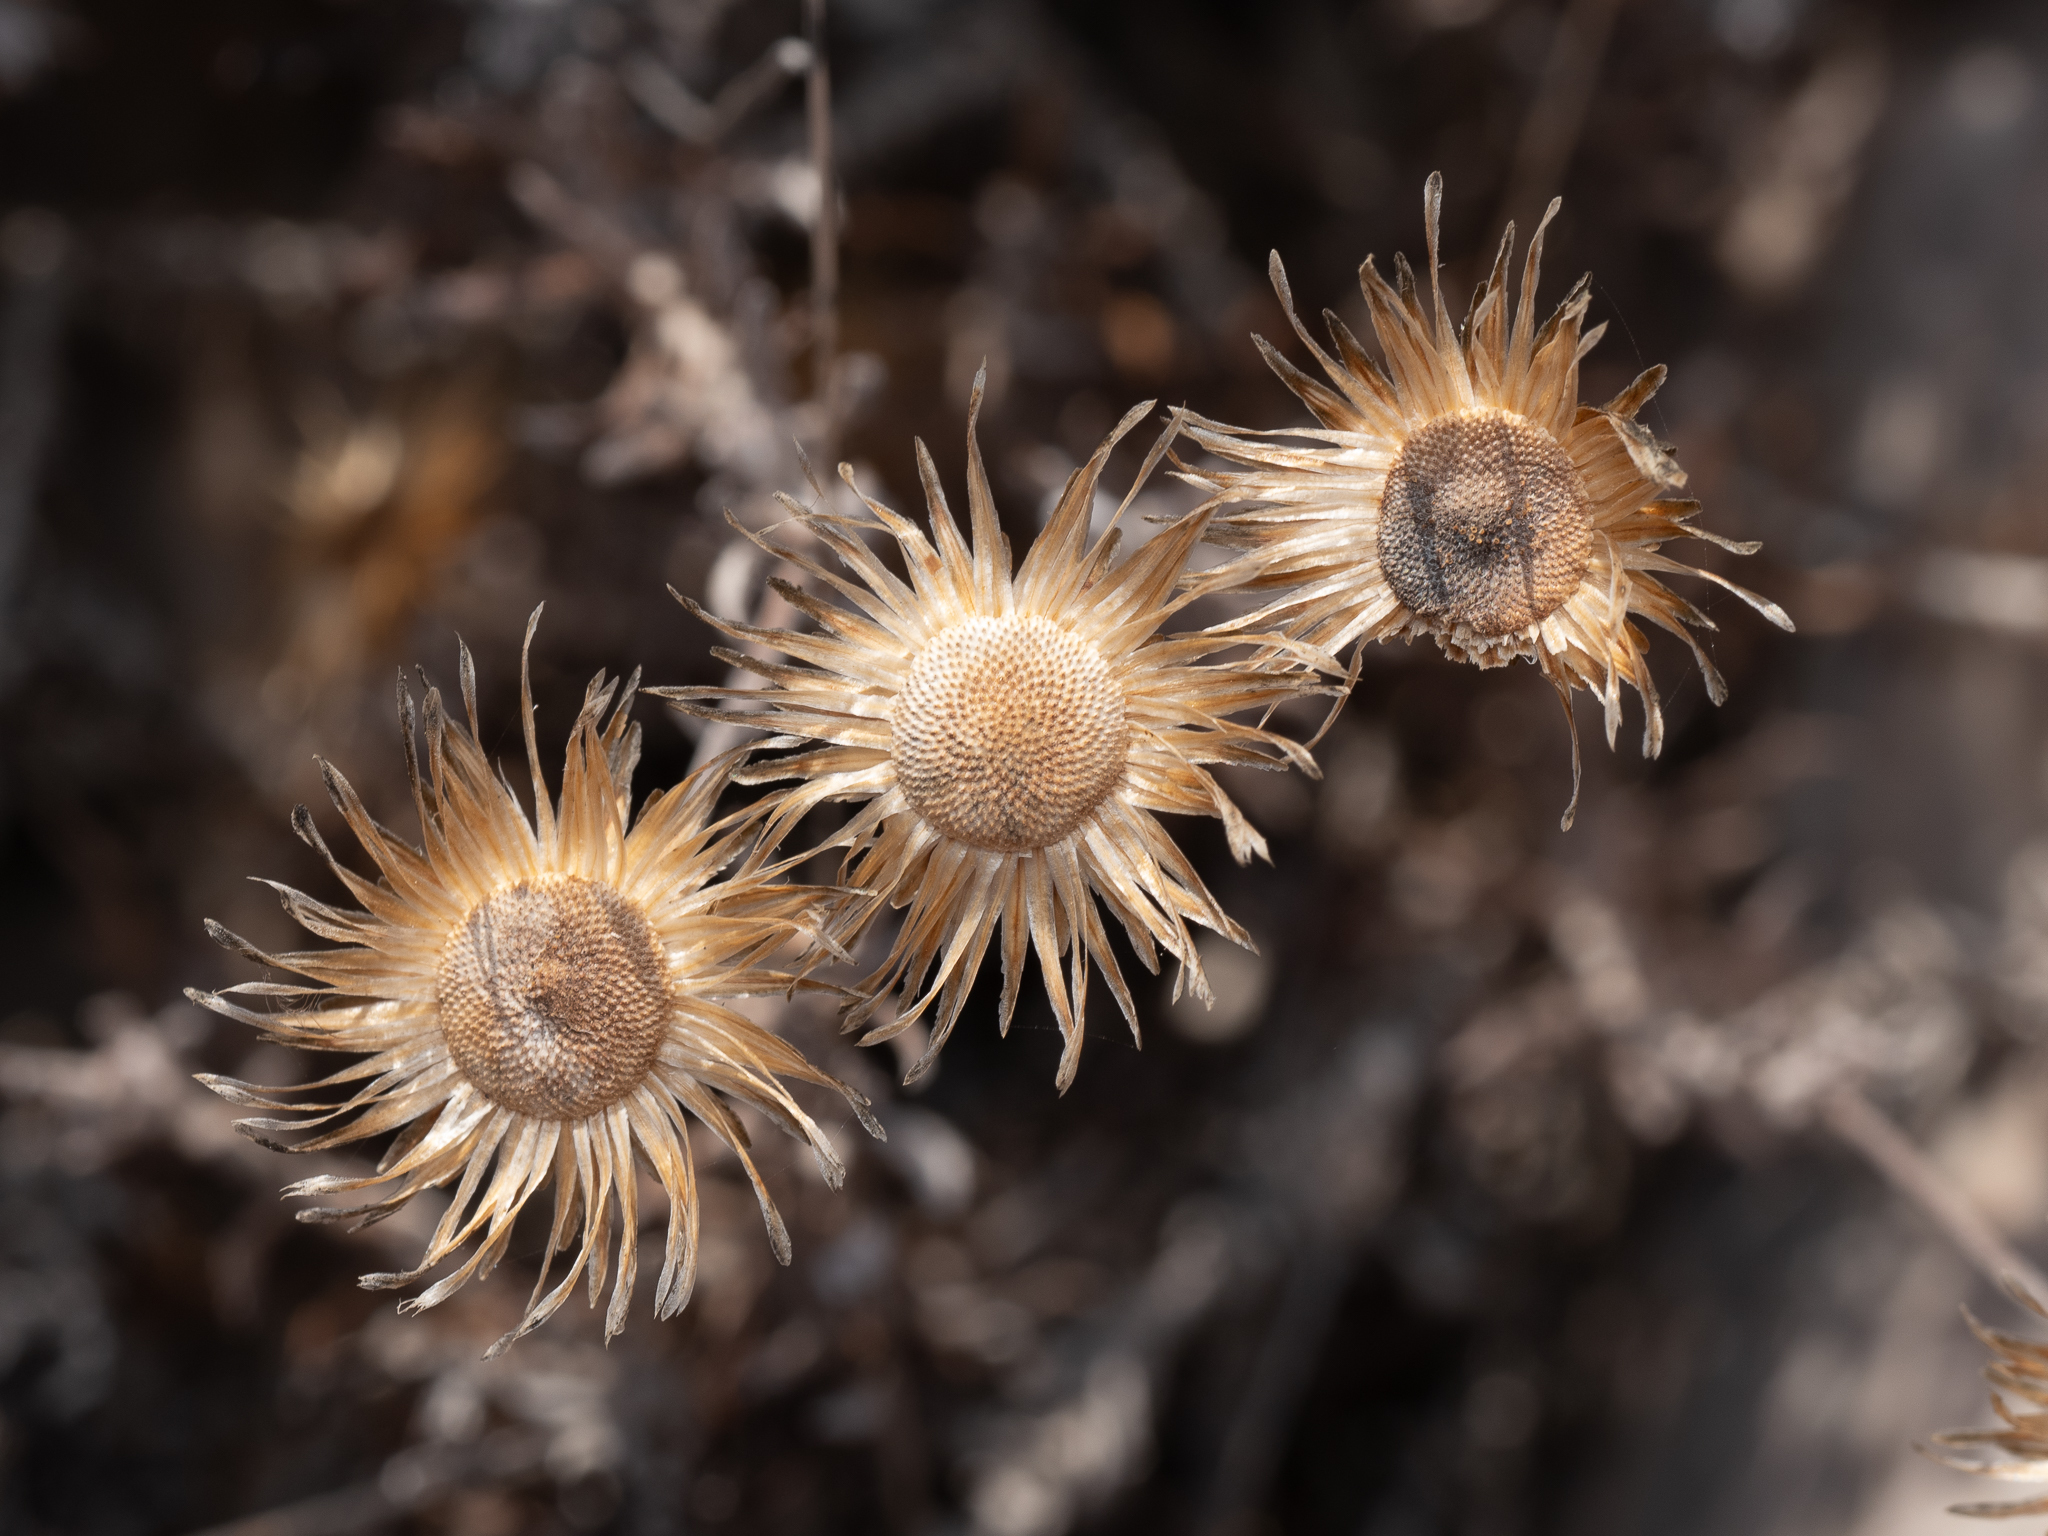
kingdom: Plantae
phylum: Tracheophyta
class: Magnoliopsida
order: Asterales
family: Asteraceae
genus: Phagnalon
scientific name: Phagnalon
